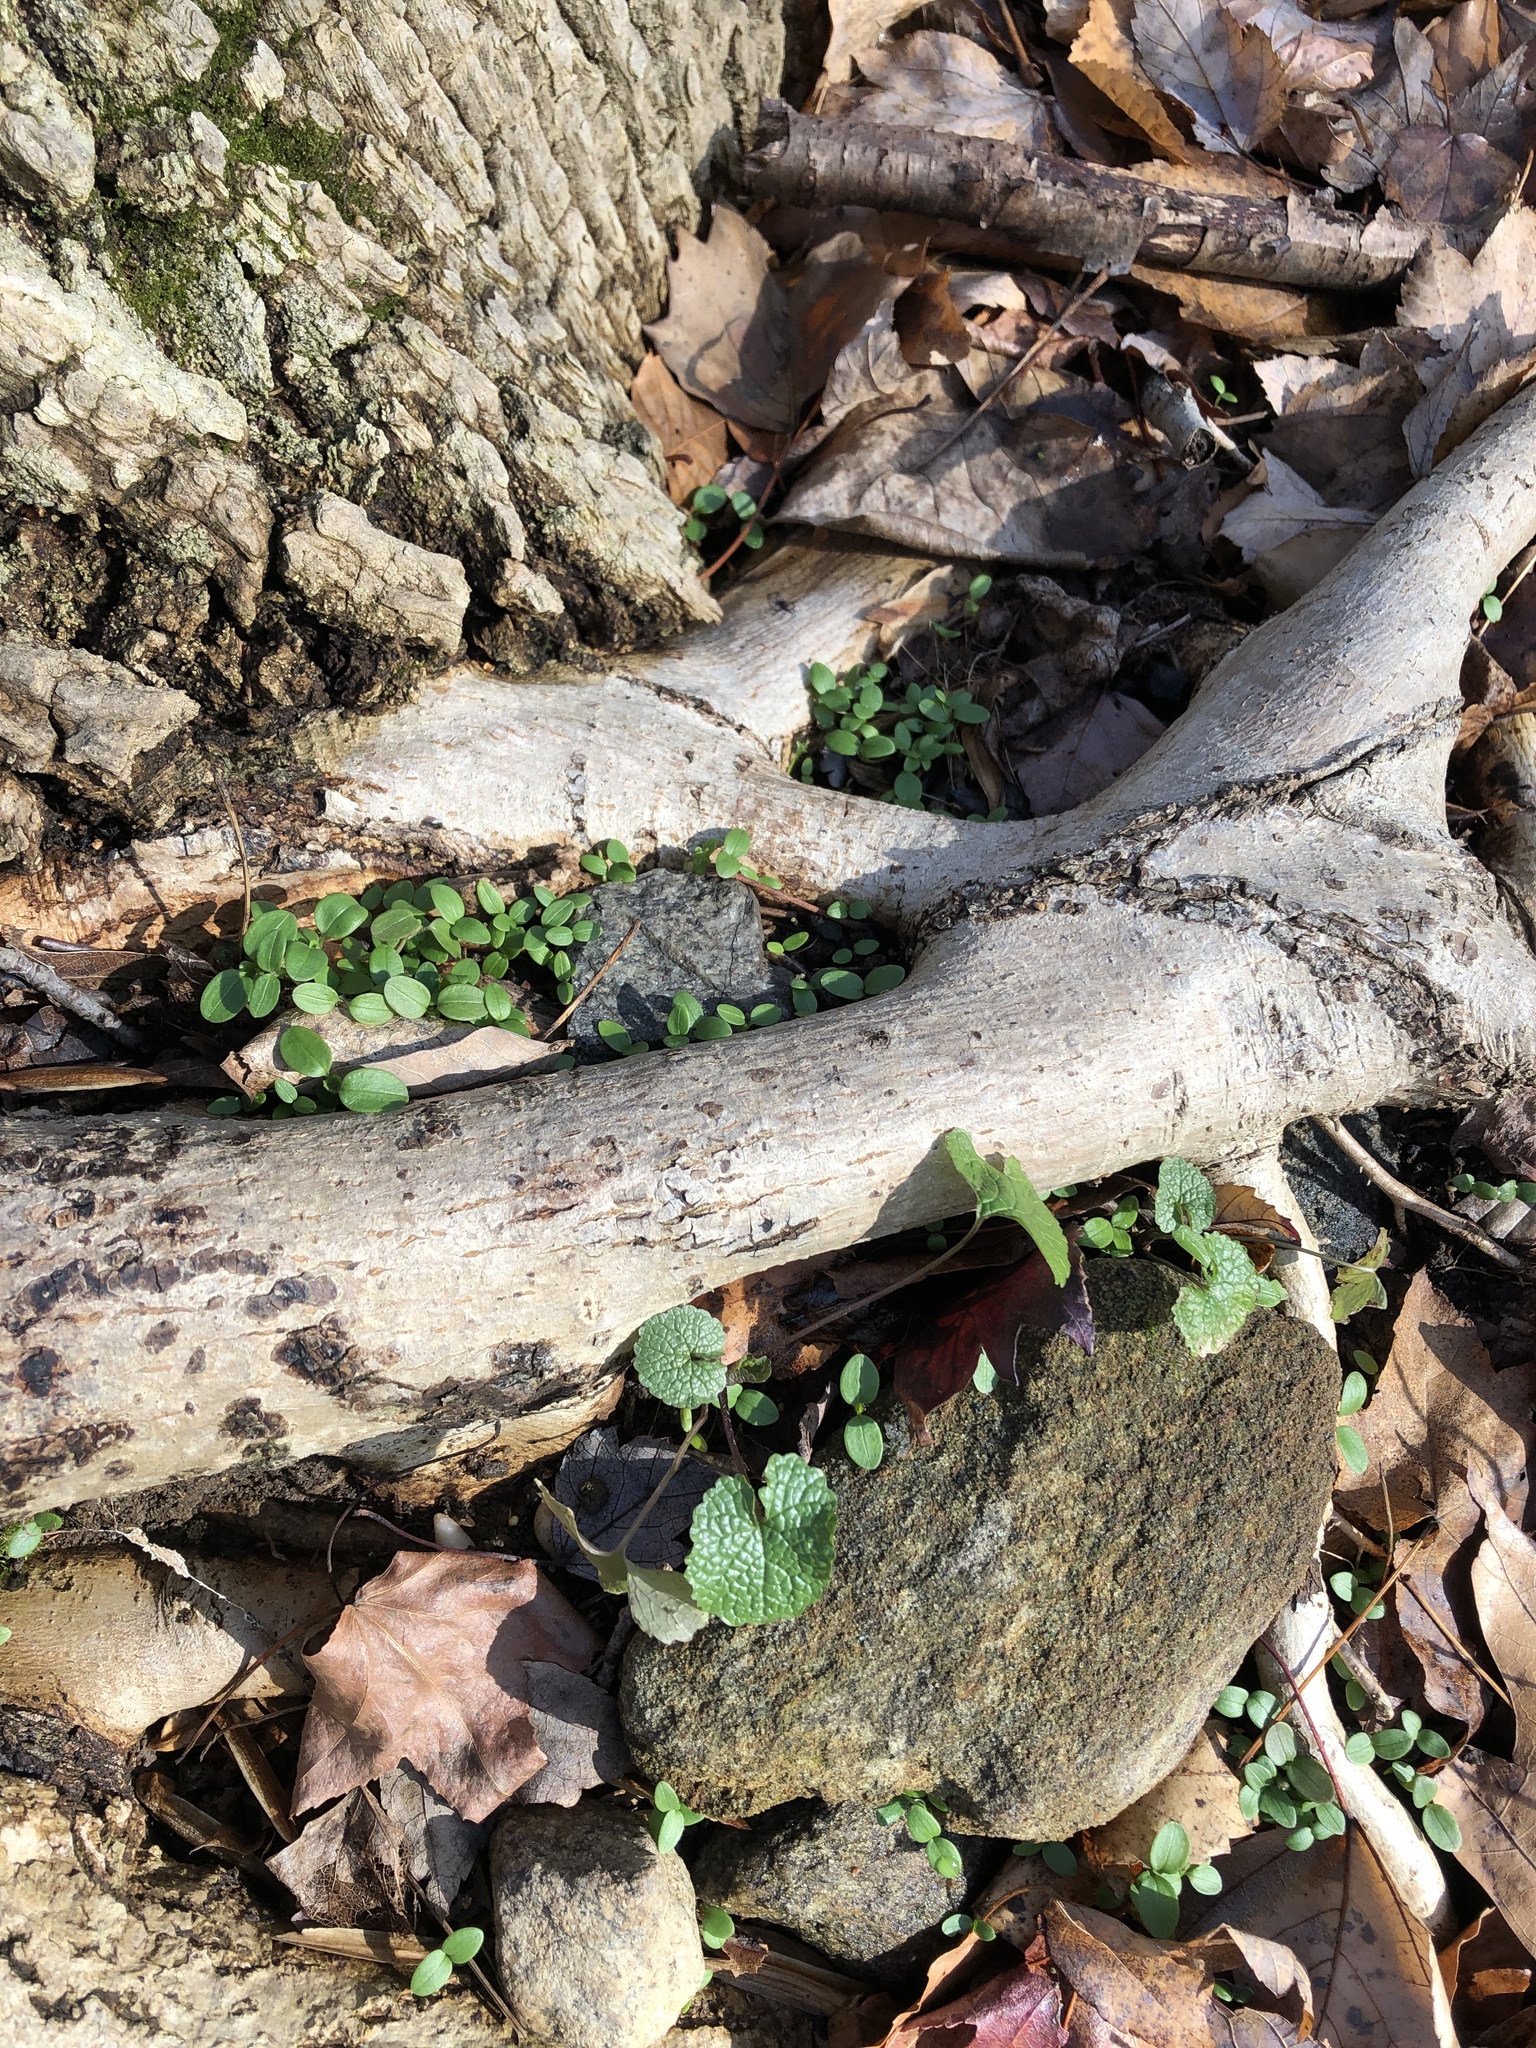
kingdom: Plantae
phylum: Tracheophyta
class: Magnoliopsida
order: Brassicales
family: Brassicaceae
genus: Alliaria
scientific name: Alliaria petiolata
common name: Garlic mustard
